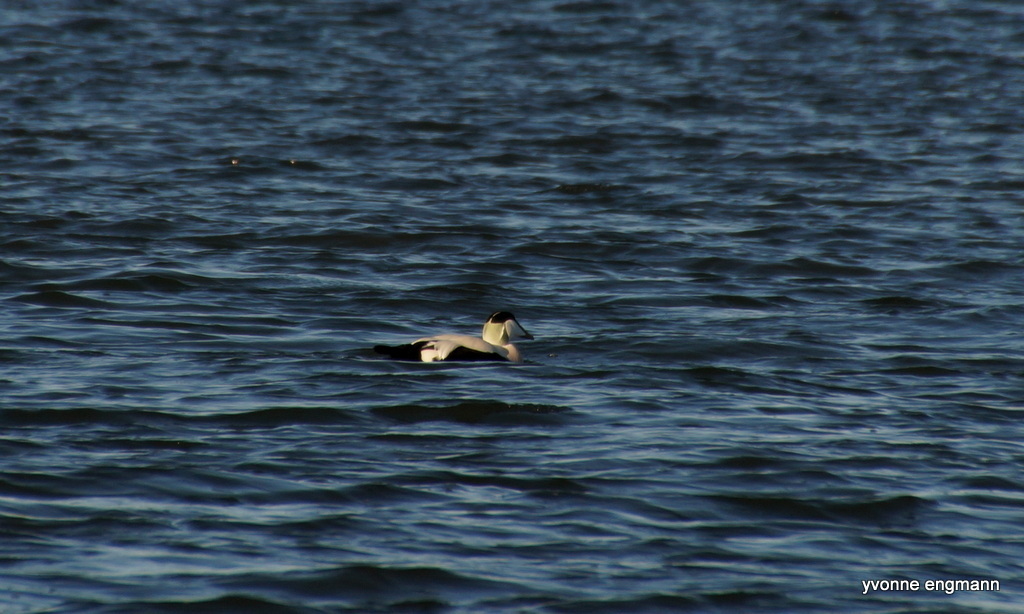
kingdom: Animalia
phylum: Chordata
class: Aves
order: Anseriformes
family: Anatidae
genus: Somateria
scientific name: Somateria mollissima
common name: Common eider
